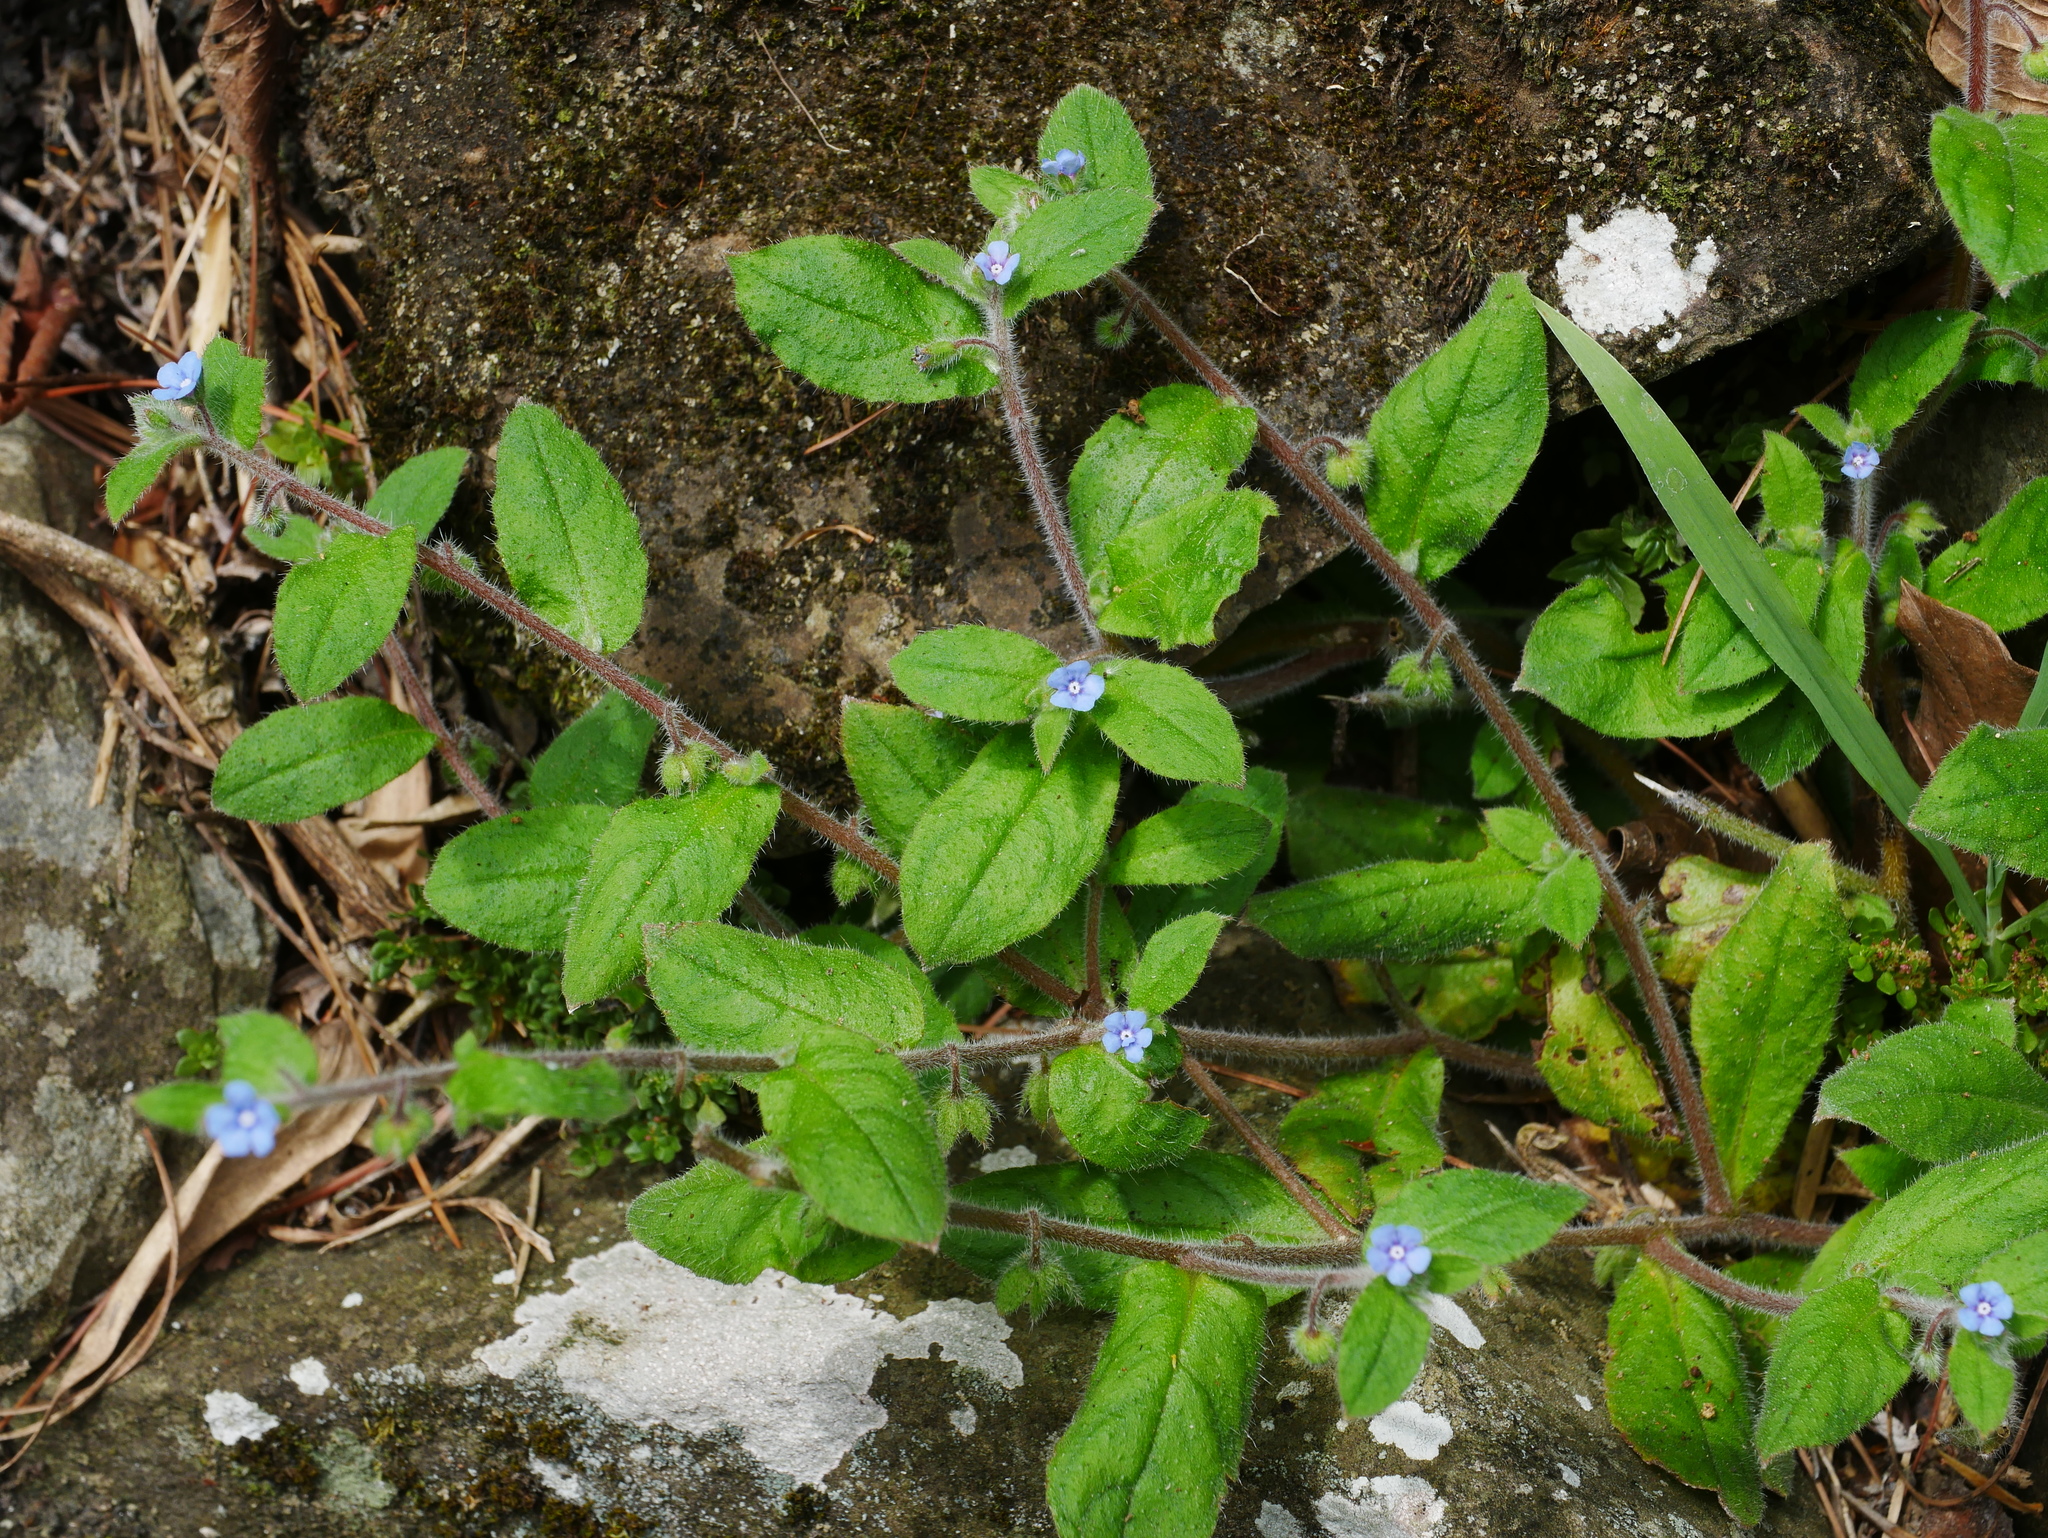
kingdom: Plantae
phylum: Tracheophyta
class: Magnoliopsida
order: Boraginales
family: Boraginaceae
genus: Thyrocarpus
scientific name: Thyrocarpus sampsonii
